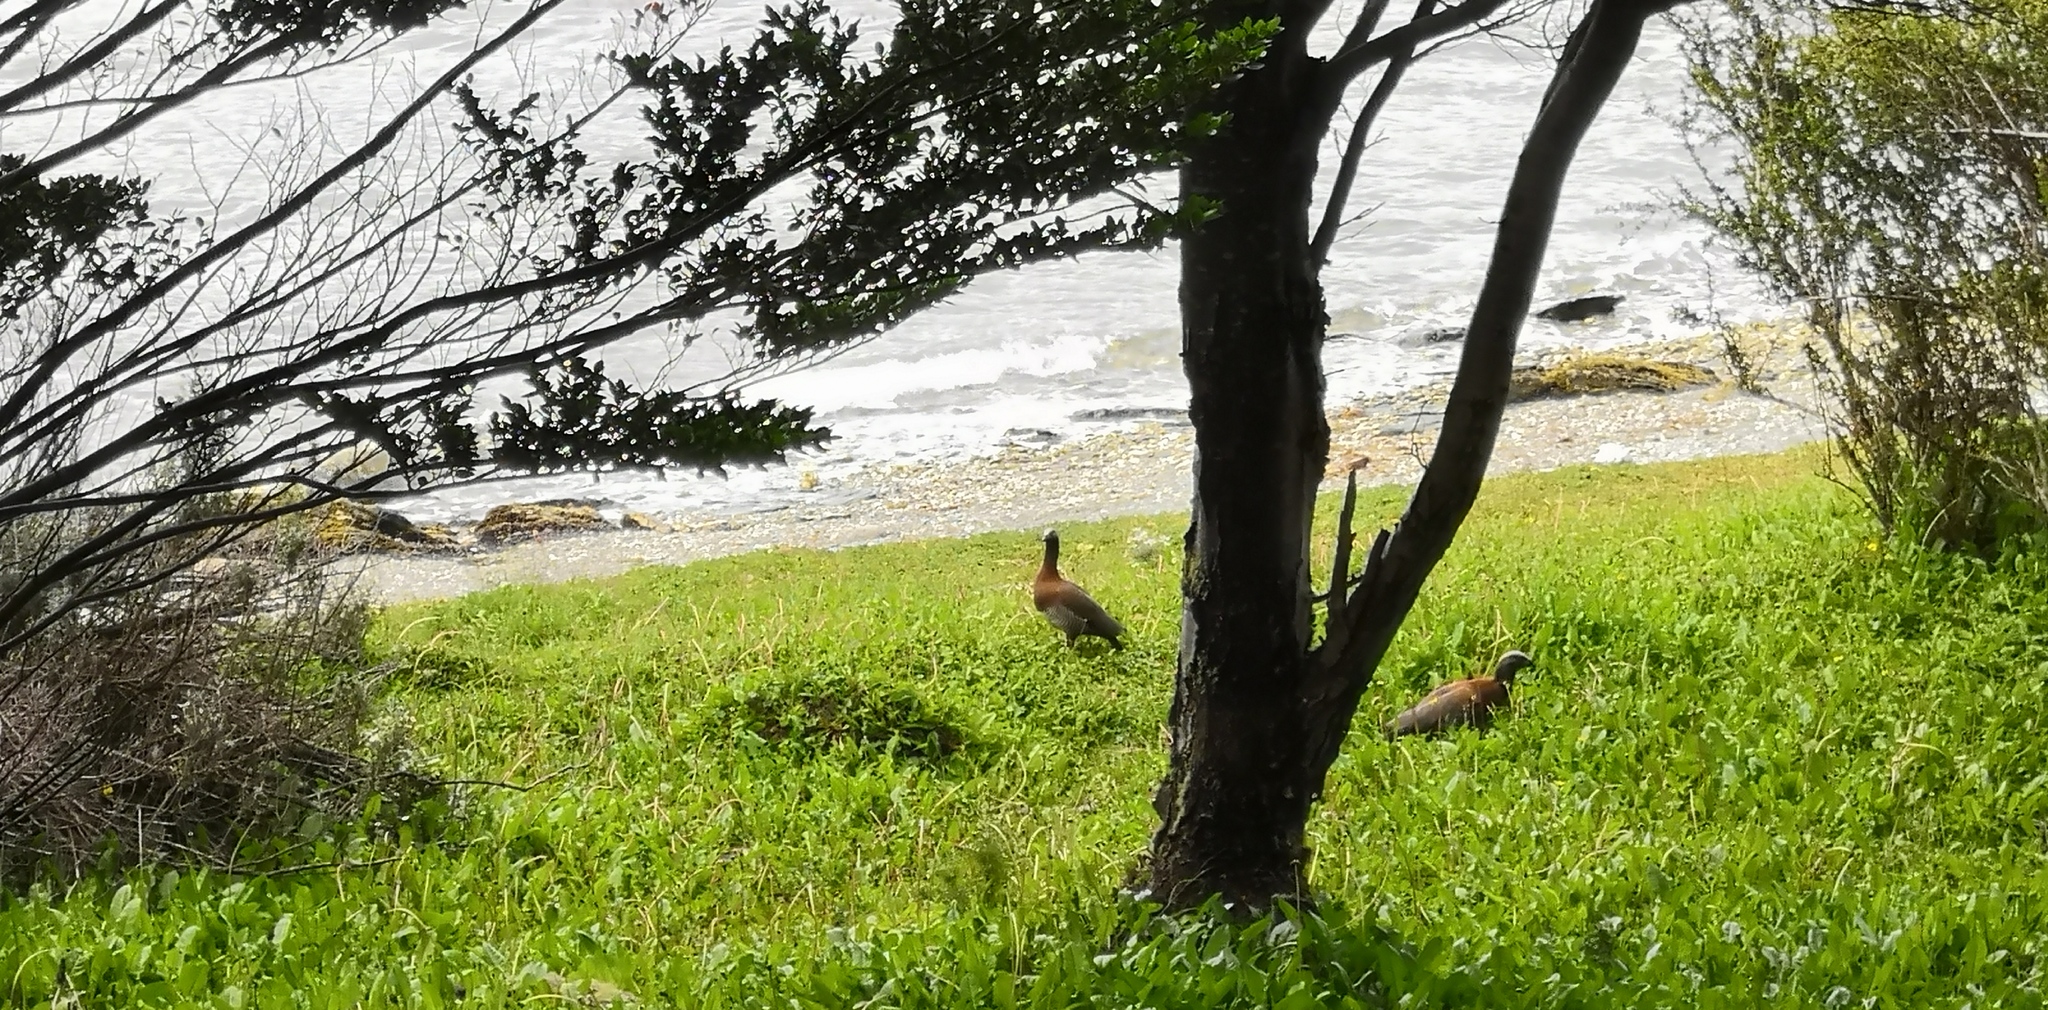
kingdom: Animalia
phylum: Chordata
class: Aves
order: Anseriformes
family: Anatidae
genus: Chloephaga
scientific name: Chloephaga poliocephala
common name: Ashy-headed goose
